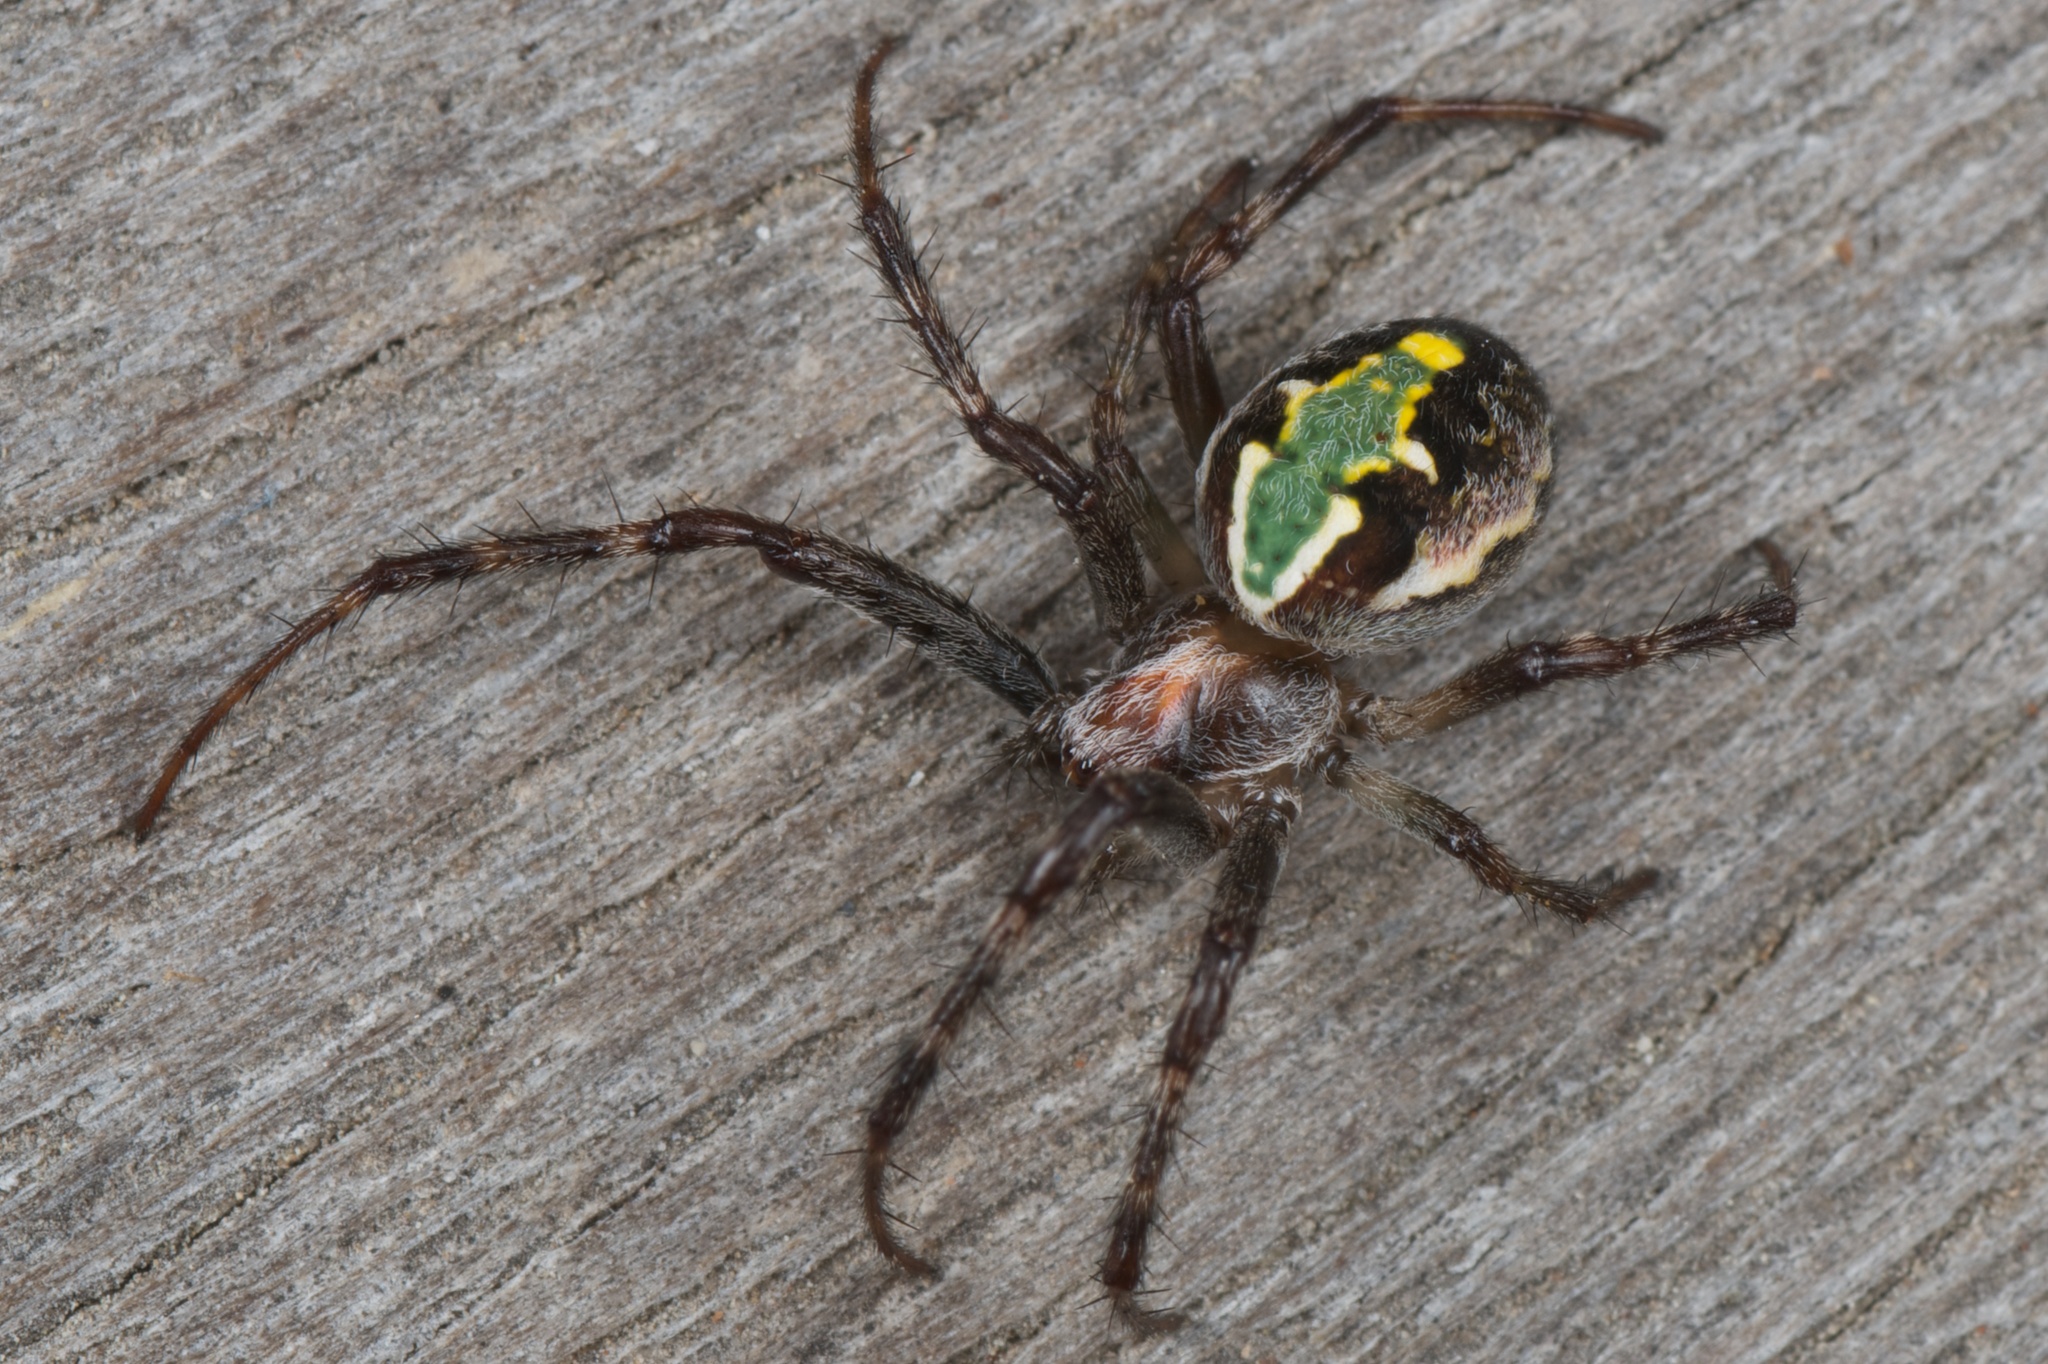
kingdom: Animalia
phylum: Arthropoda
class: Arachnida
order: Araneae
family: Araneidae
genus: Novaranea
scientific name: Novaranea queribunda
